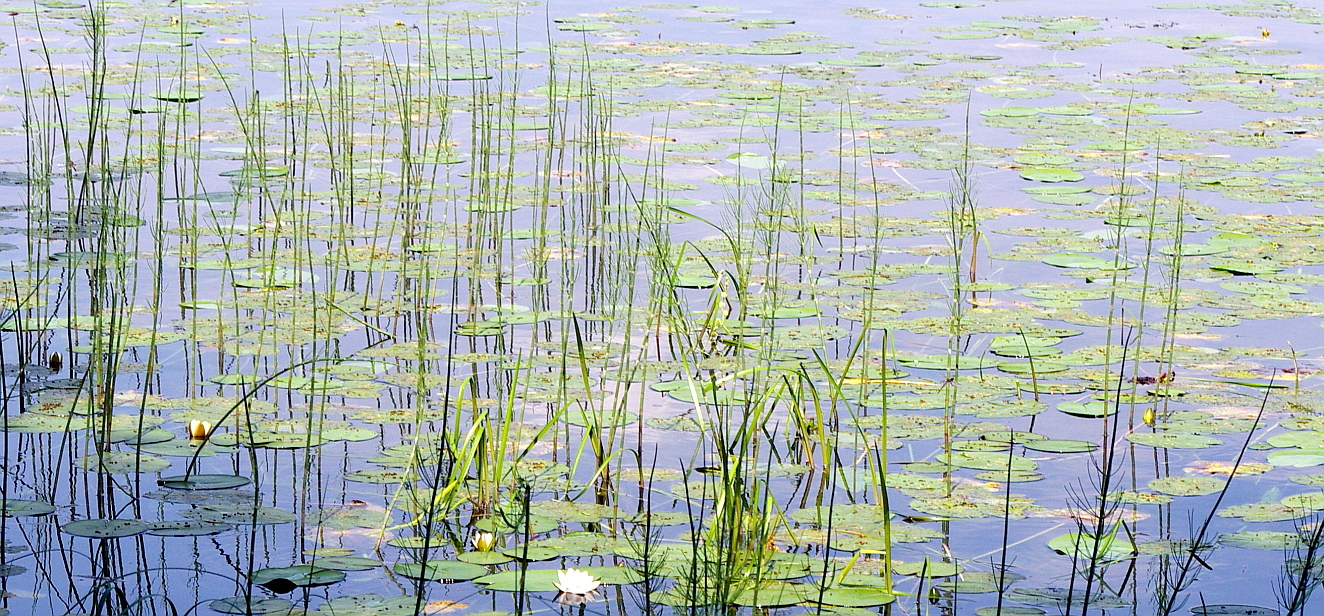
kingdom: Plantae
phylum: Tracheophyta
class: Polypodiopsida
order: Equisetales
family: Equisetaceae
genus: Equisetum
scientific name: Equisetum fluviatile
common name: Water horsetail
